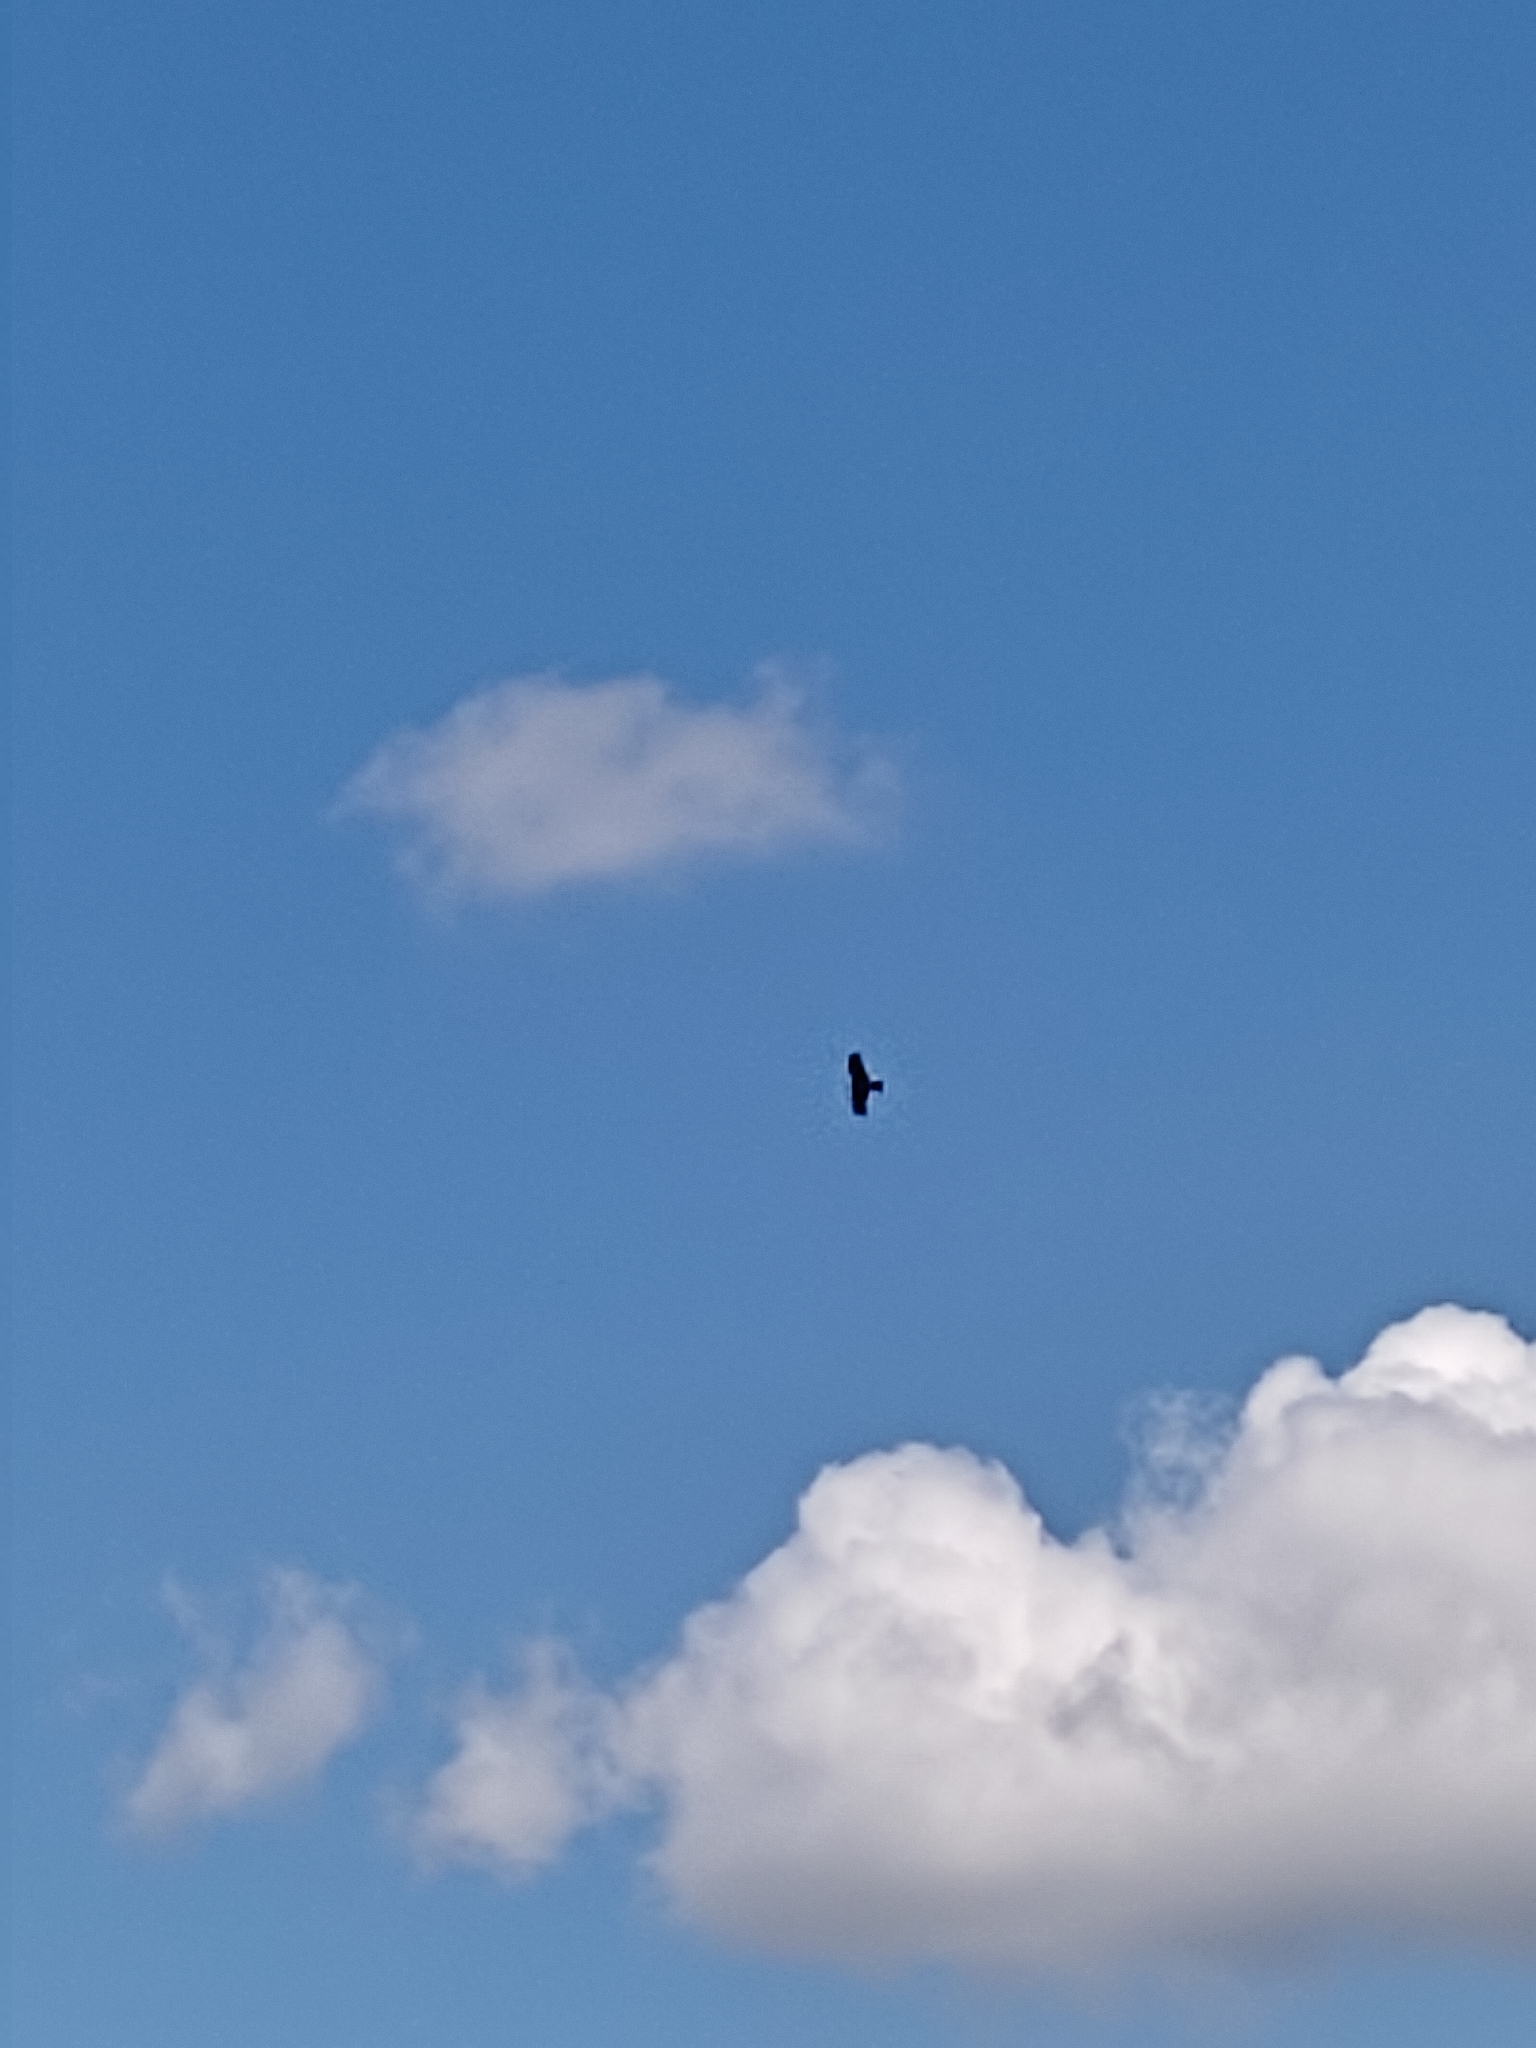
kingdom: Animalia
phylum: Chordata
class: Aves
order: Accipitriformes
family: Accipitridae
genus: Milvus
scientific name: Milvus migrans
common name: Black kite
